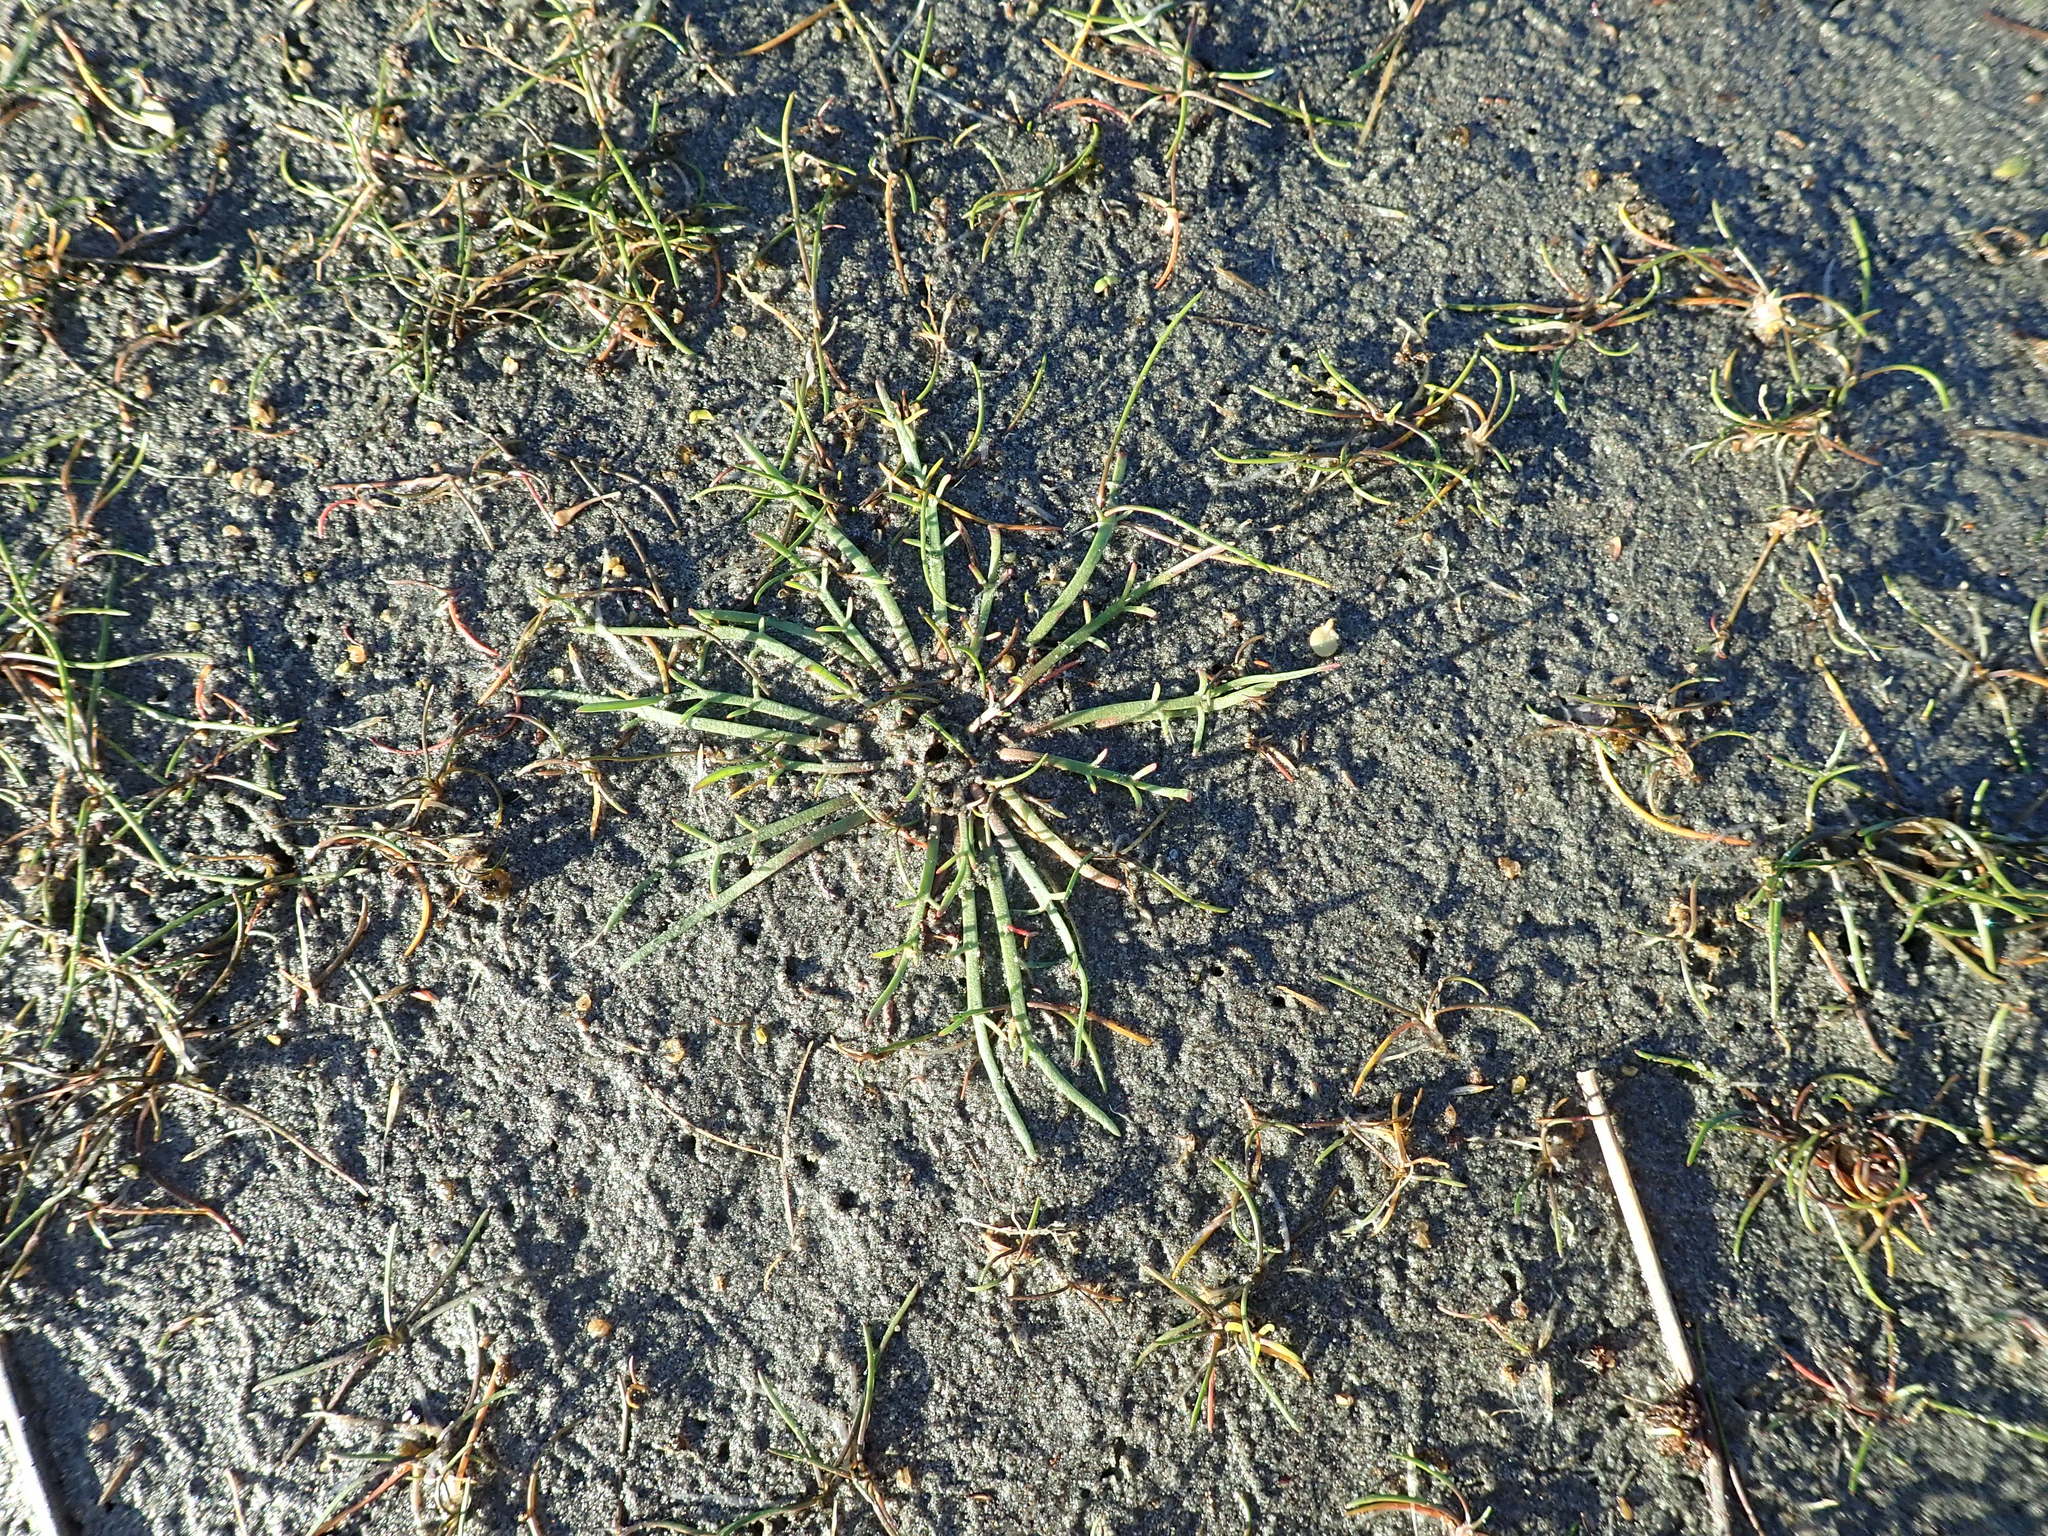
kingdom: Plantae
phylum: Tracheophyta
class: Magnoliopsida
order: Lamiales
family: Plantaginaceae
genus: Plantago
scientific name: Plantago coronopus
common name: Buck's-horn plantain
